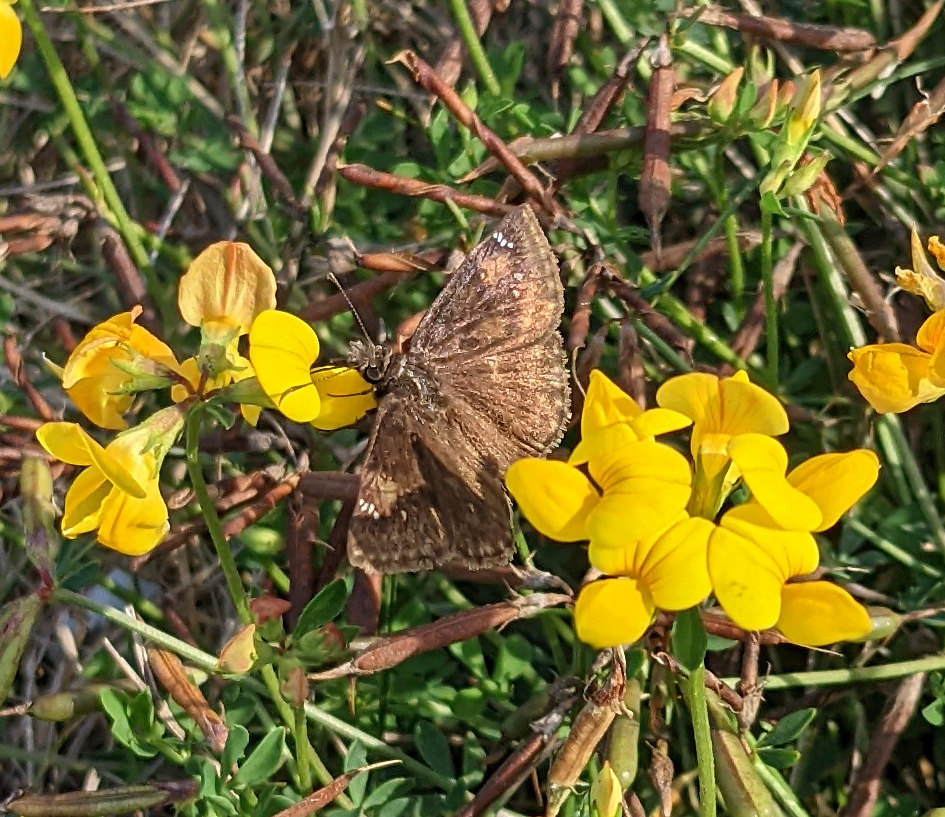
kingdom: Animalia
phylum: Arthropoda
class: Insecta
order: Lepidoptera
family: Hesperiidae
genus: Erynnis
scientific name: Erynnis baptisiae
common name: Wild indigo duskywing
